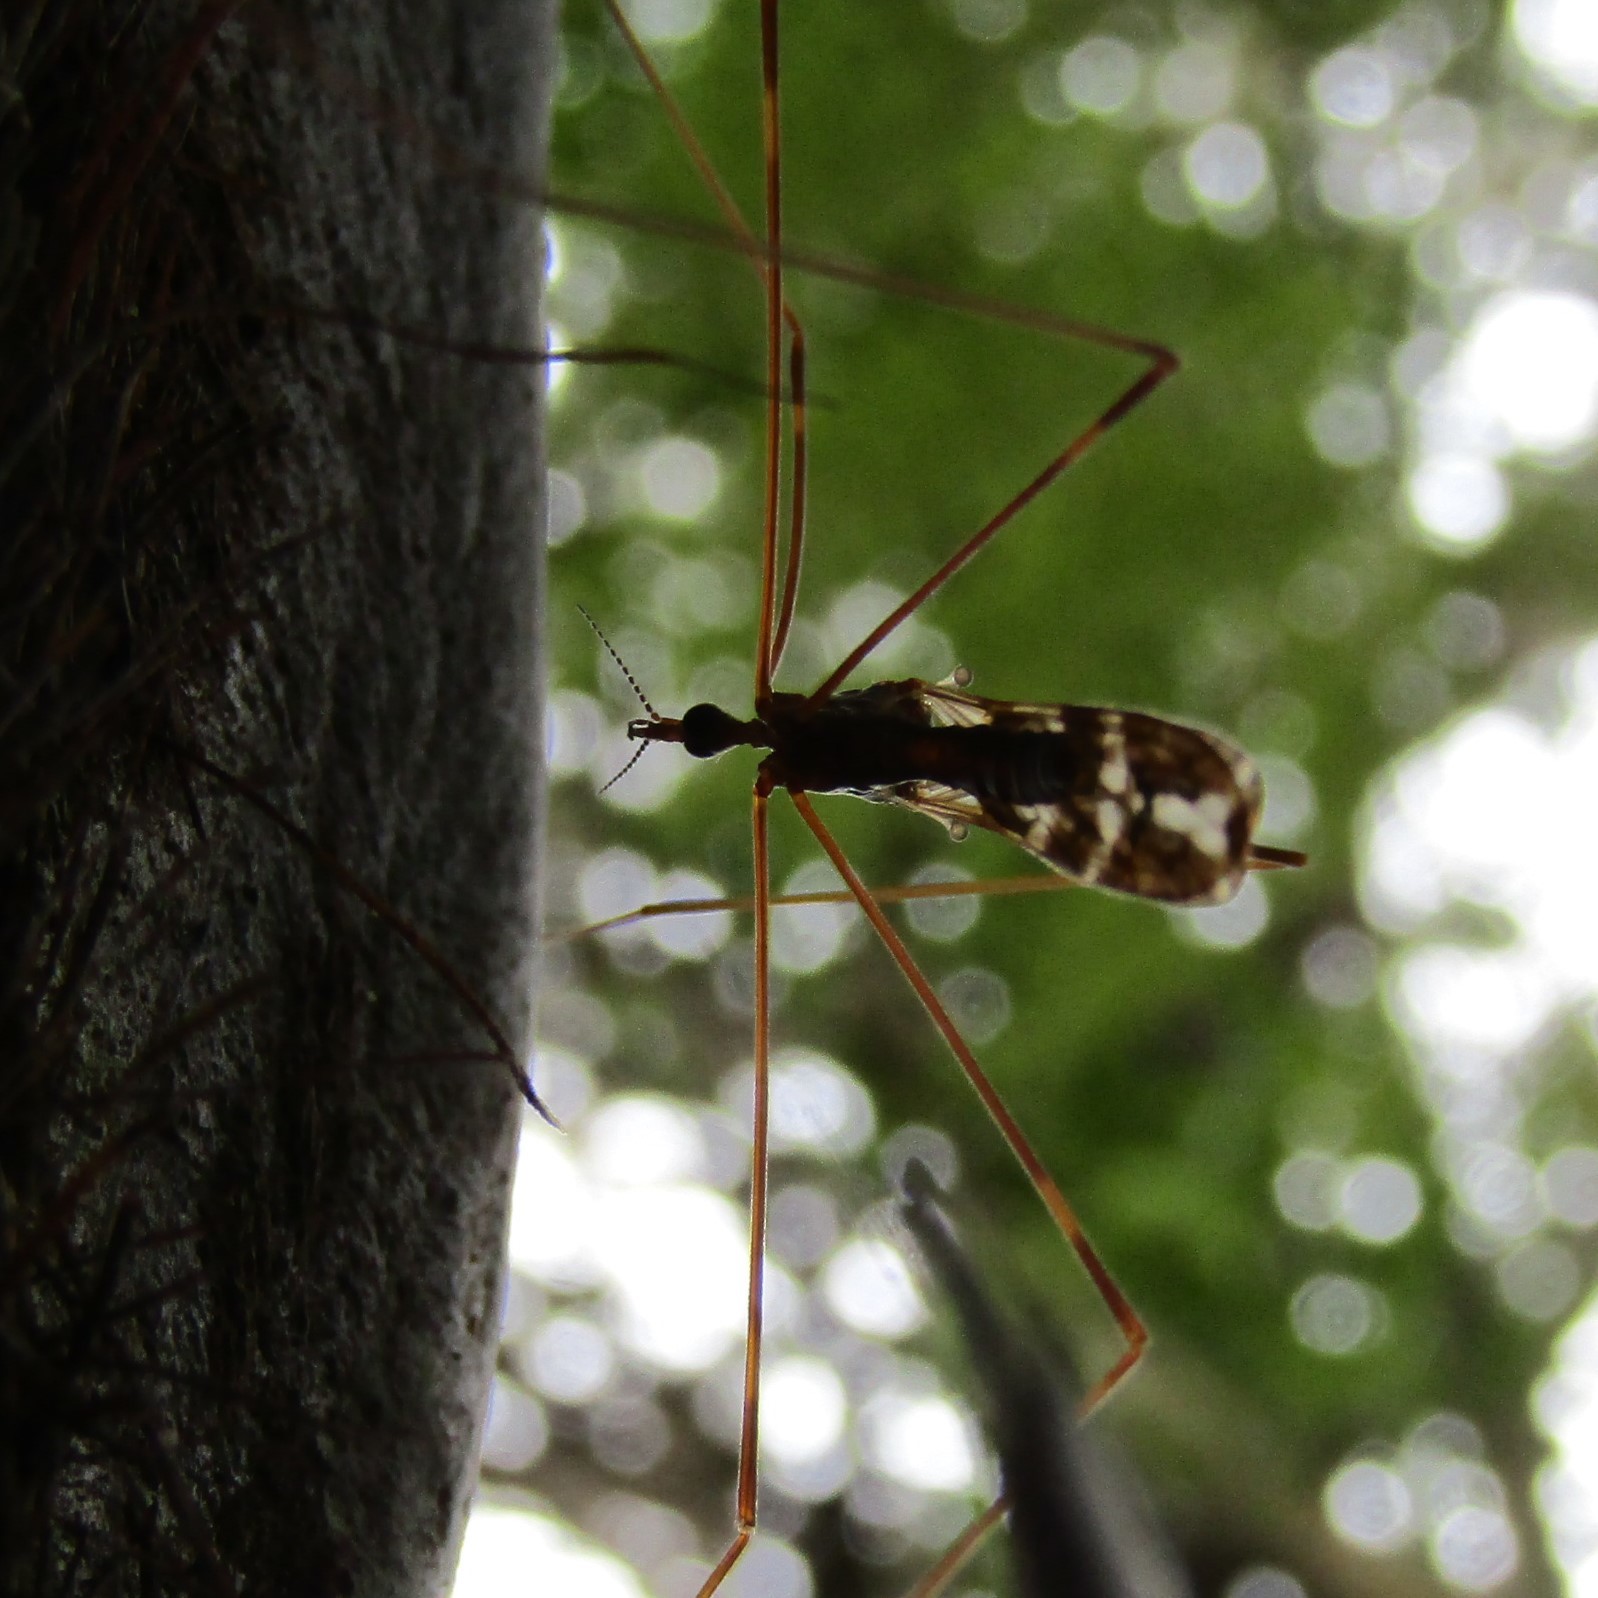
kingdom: Animalia
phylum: Arthropoda
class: Insecta
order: Diptera
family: Limoniidae
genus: Discobola
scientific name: Discobola dohrni
